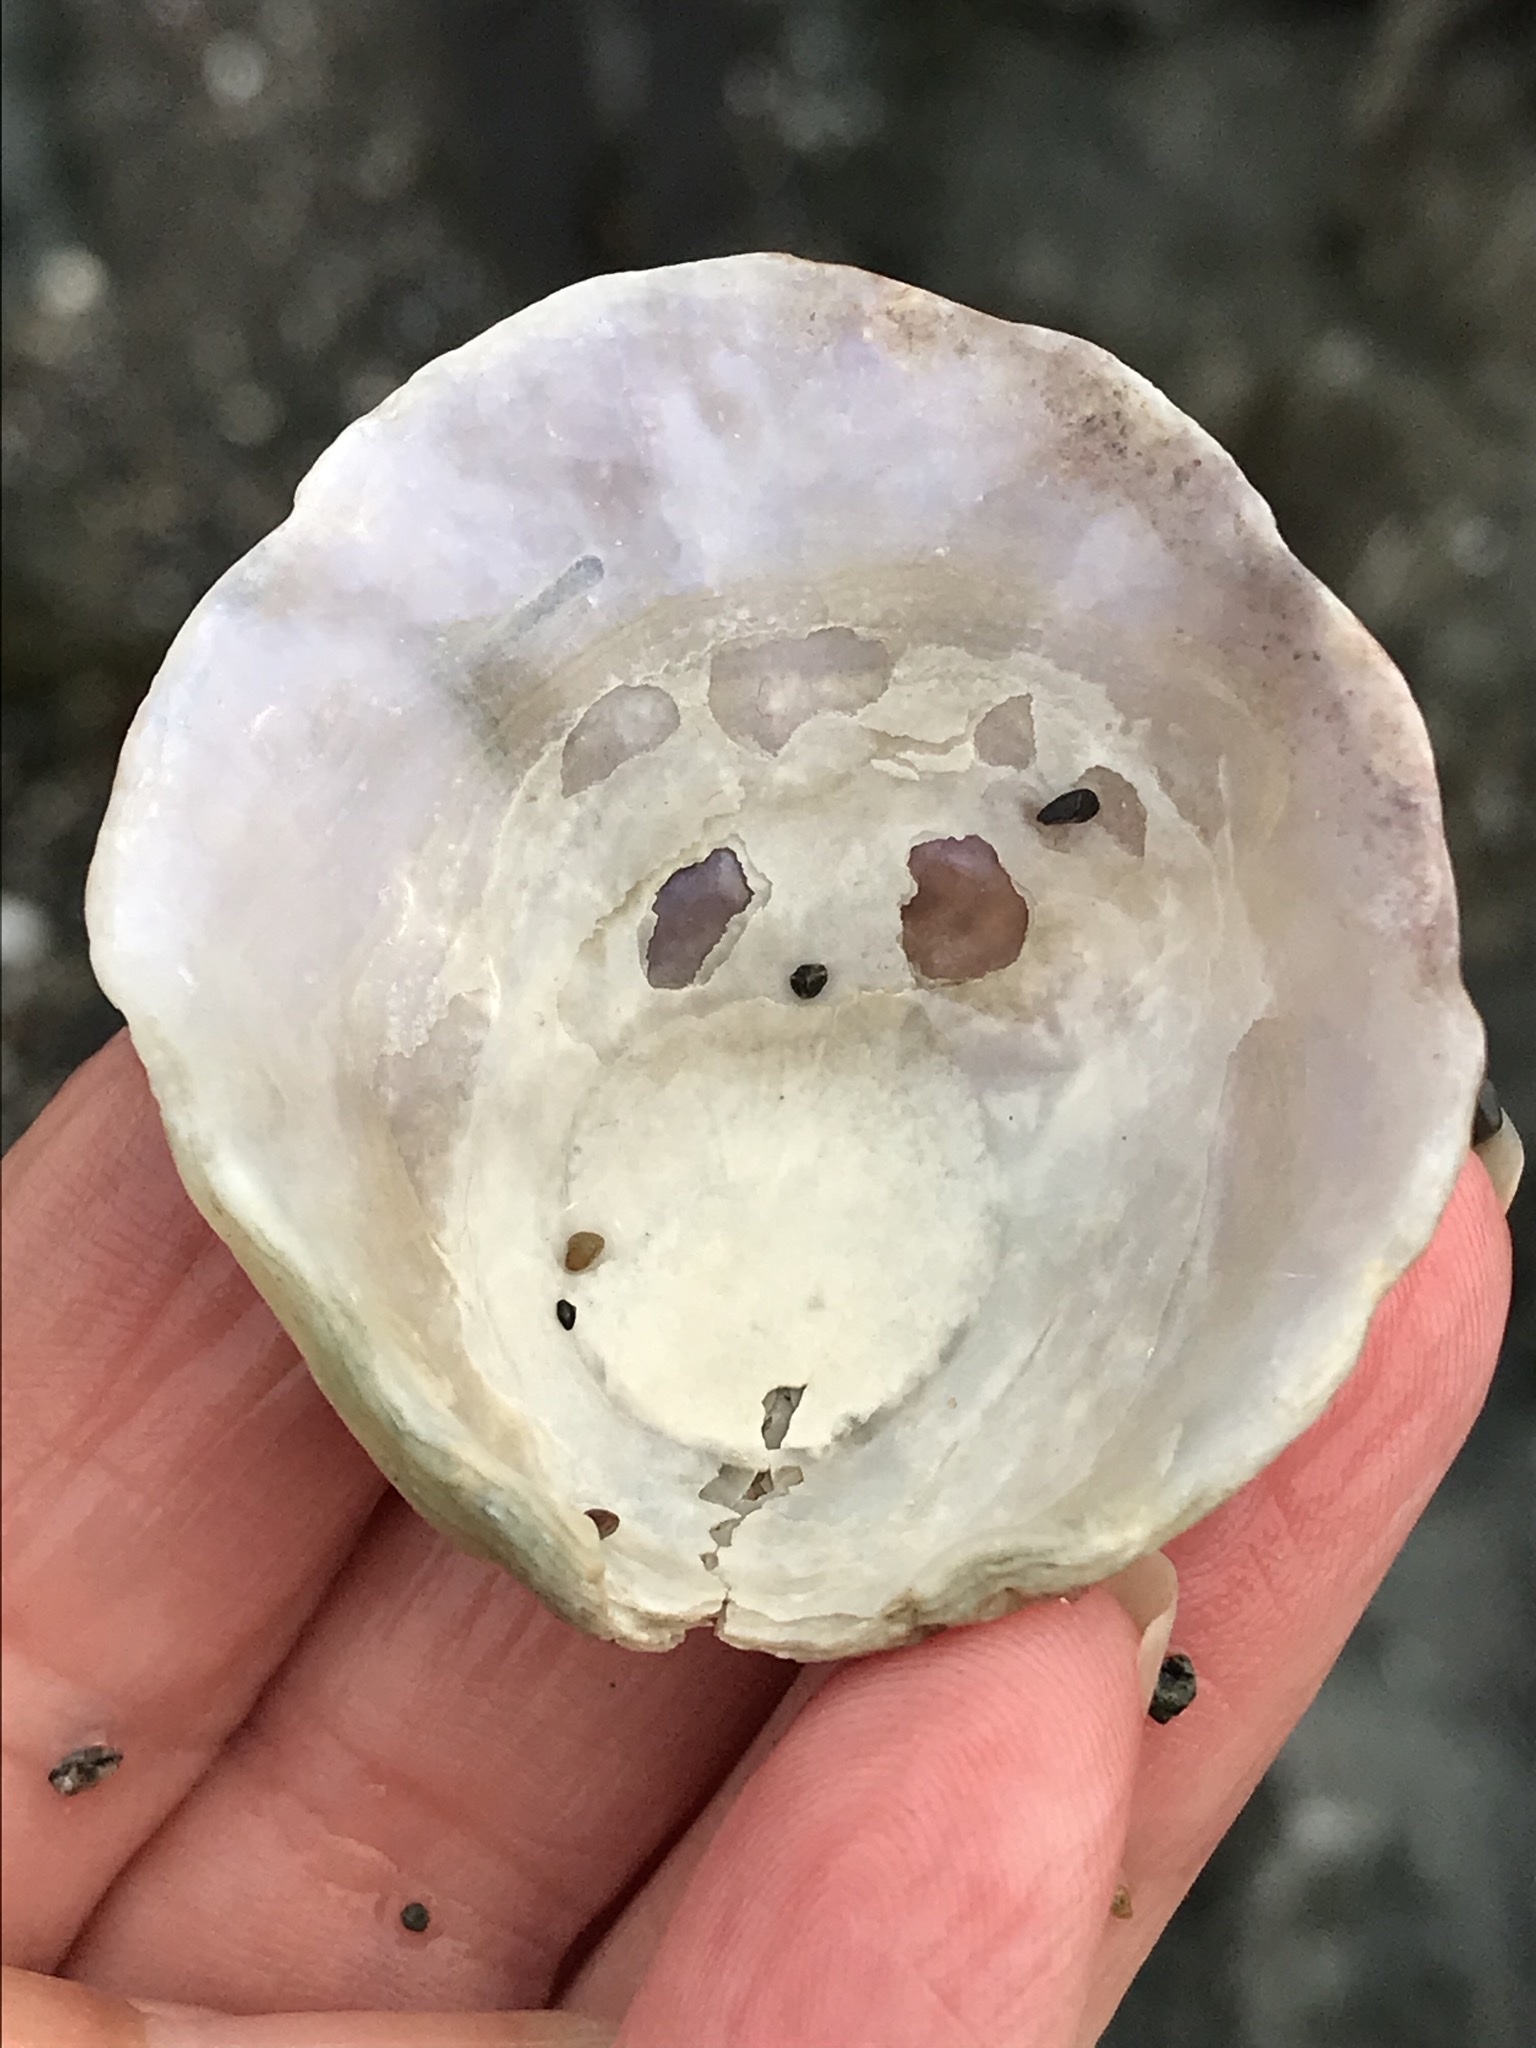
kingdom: Animalia
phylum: Mollusca
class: Bivalvia
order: Pectinida
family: Anomiidae
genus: Pododesmus
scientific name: Pododesmus macrochisma
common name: Alaska jingle
